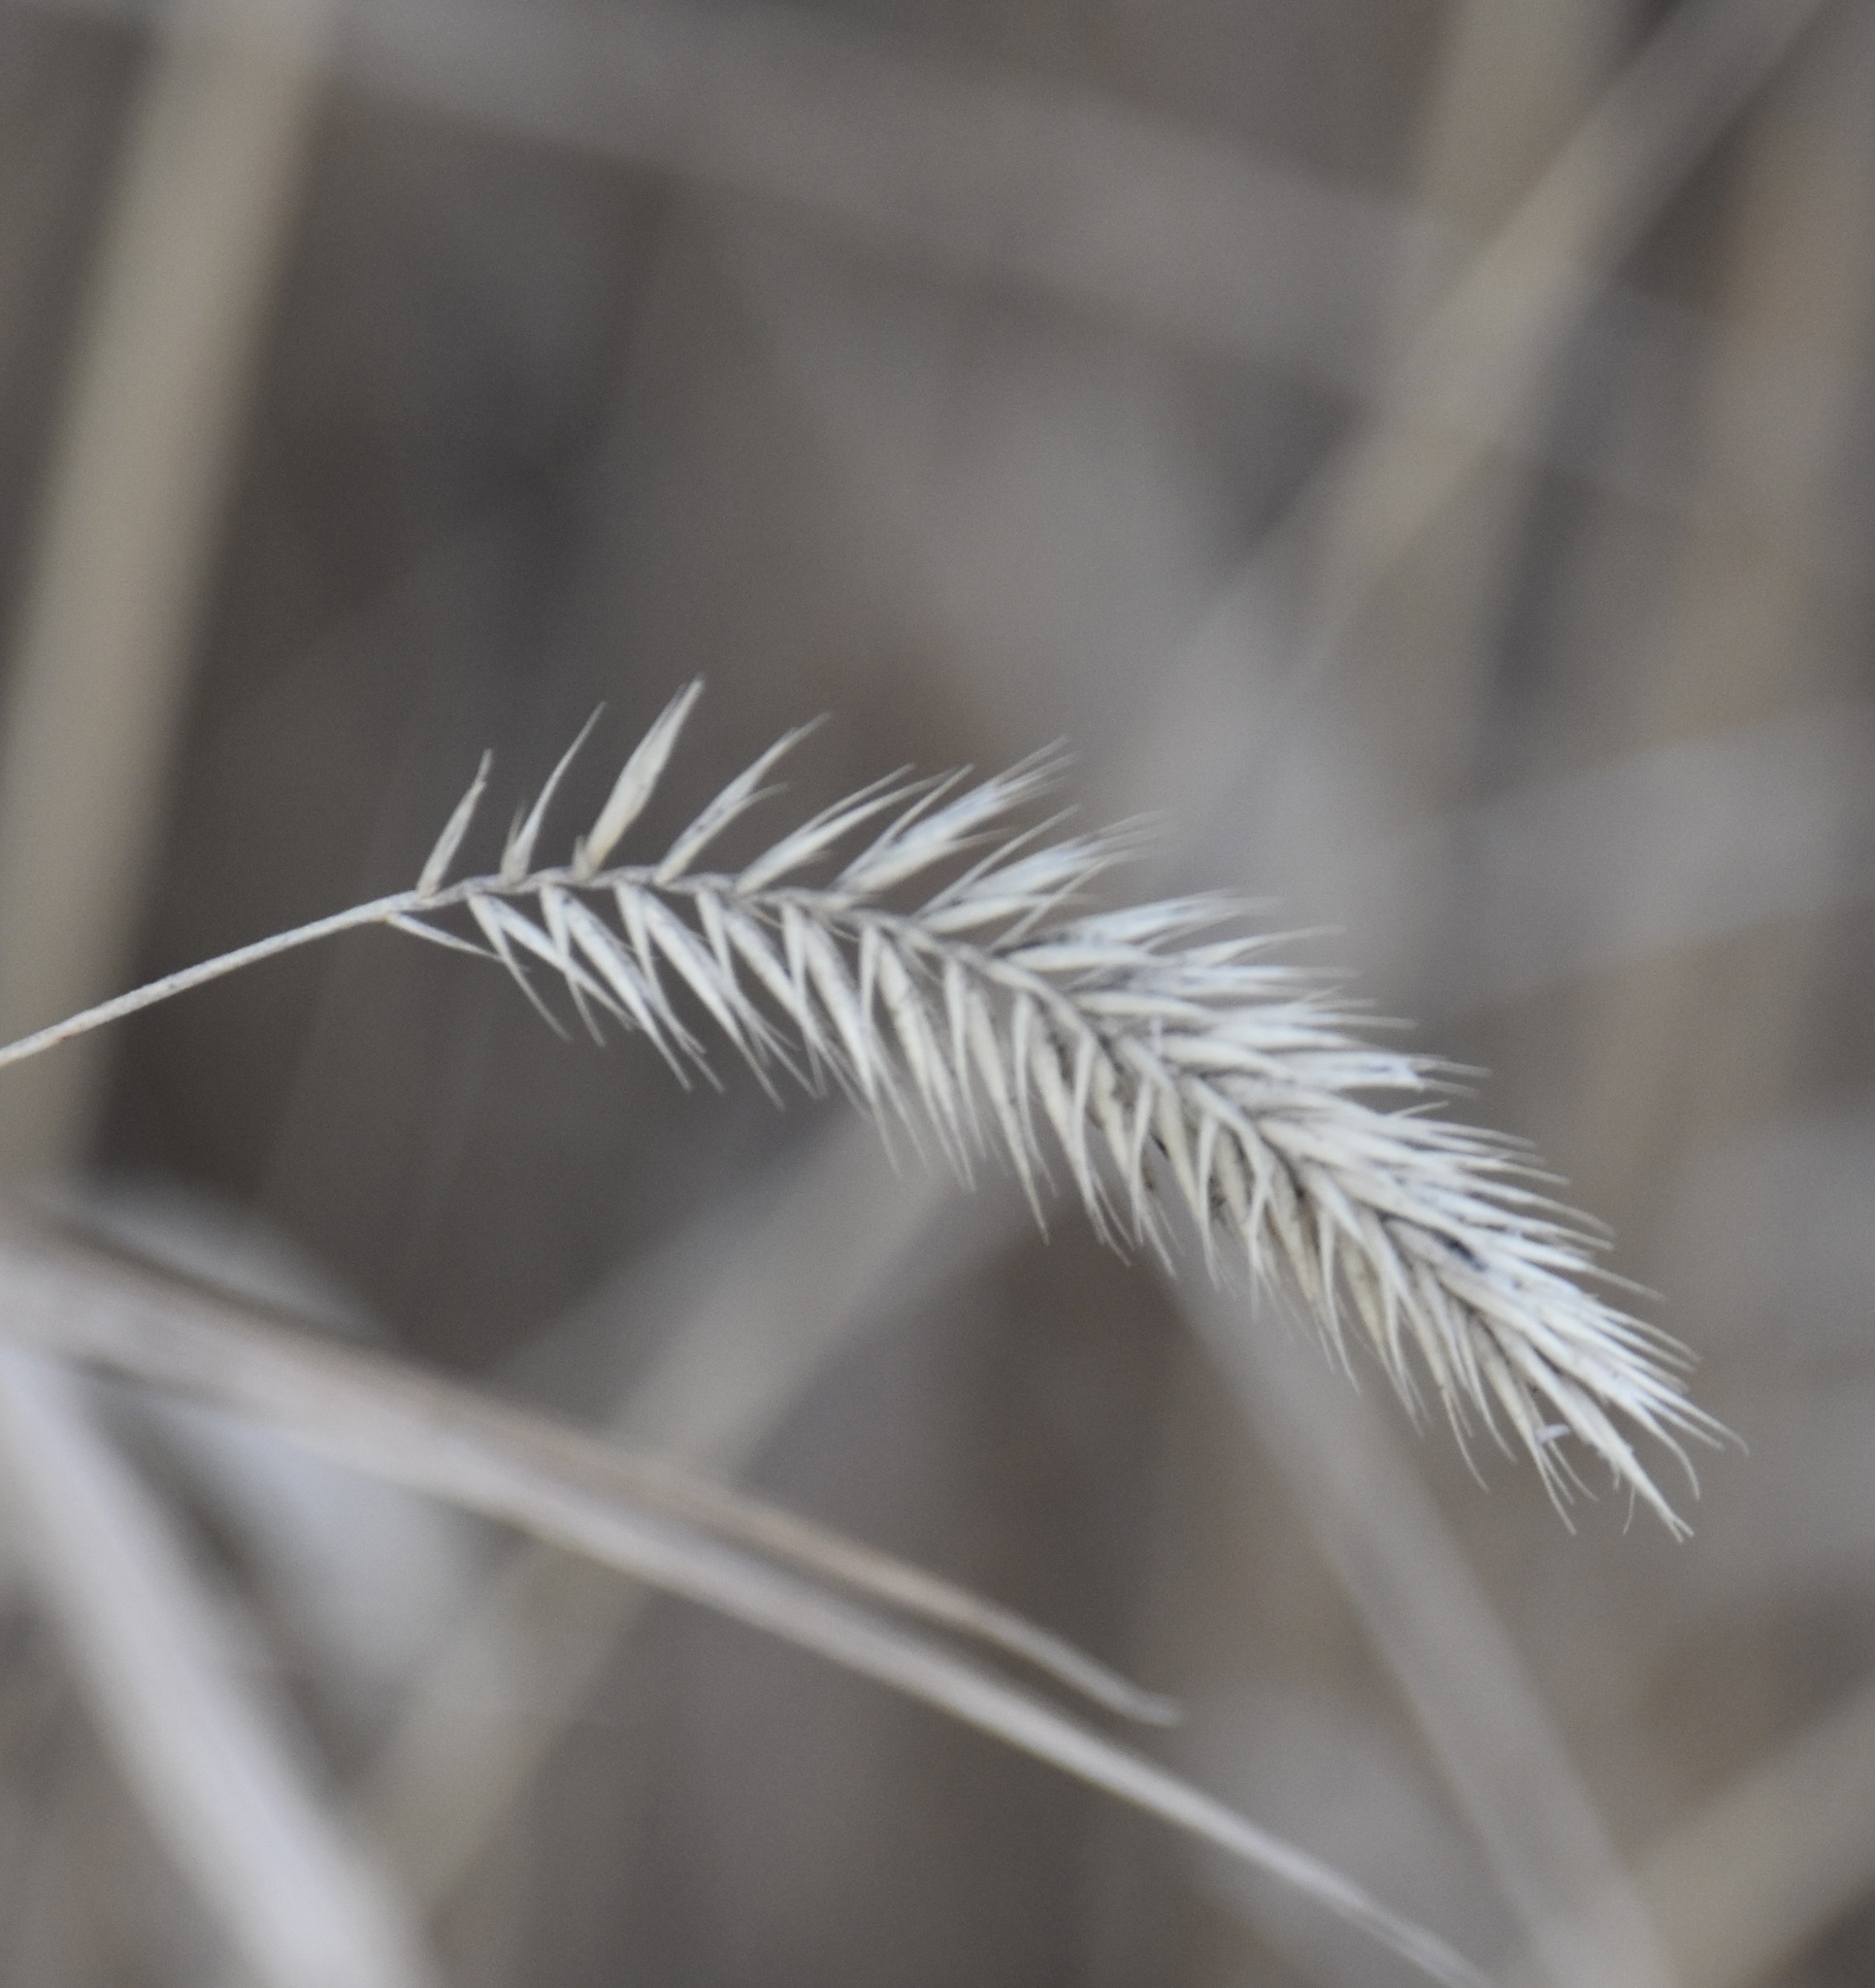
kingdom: Plantae
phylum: Tracheophyta
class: Liliopsida
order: Poales
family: Poaceae
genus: Agropyron
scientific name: Agropyron cristatum
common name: Crested wheatgrass
